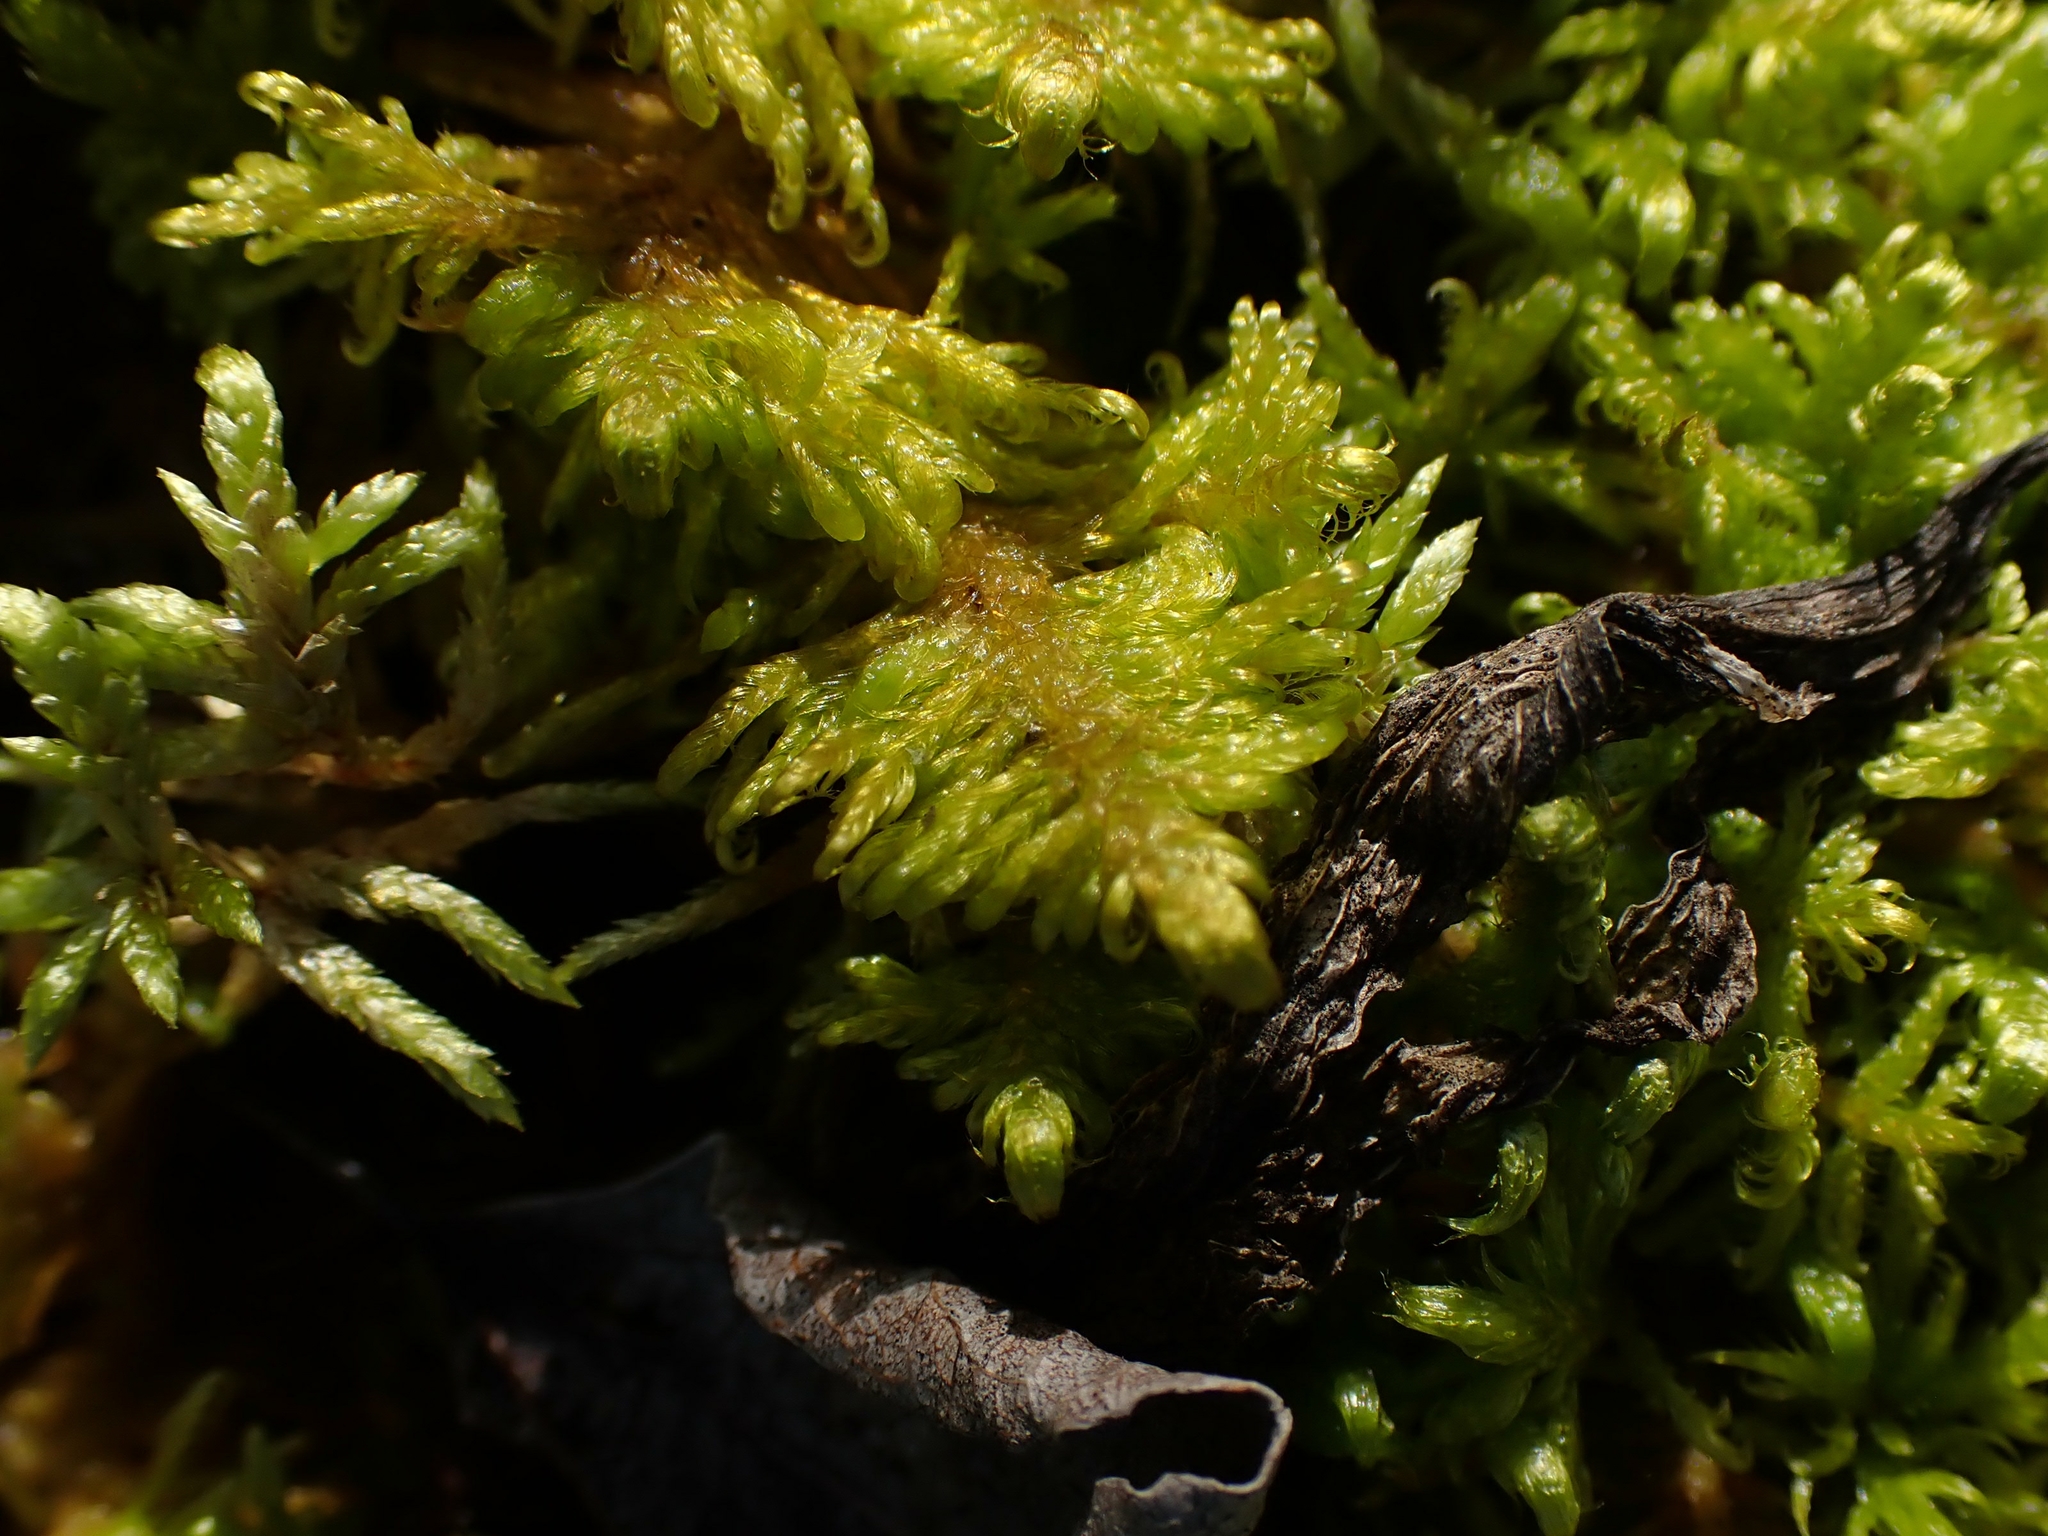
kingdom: Plantae
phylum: Bryophyta
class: Bryopsida
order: Hypnales
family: Pylaisiaceae
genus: Ptilium
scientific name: Ptilium crista-castrensis
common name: Knight's plume moss
